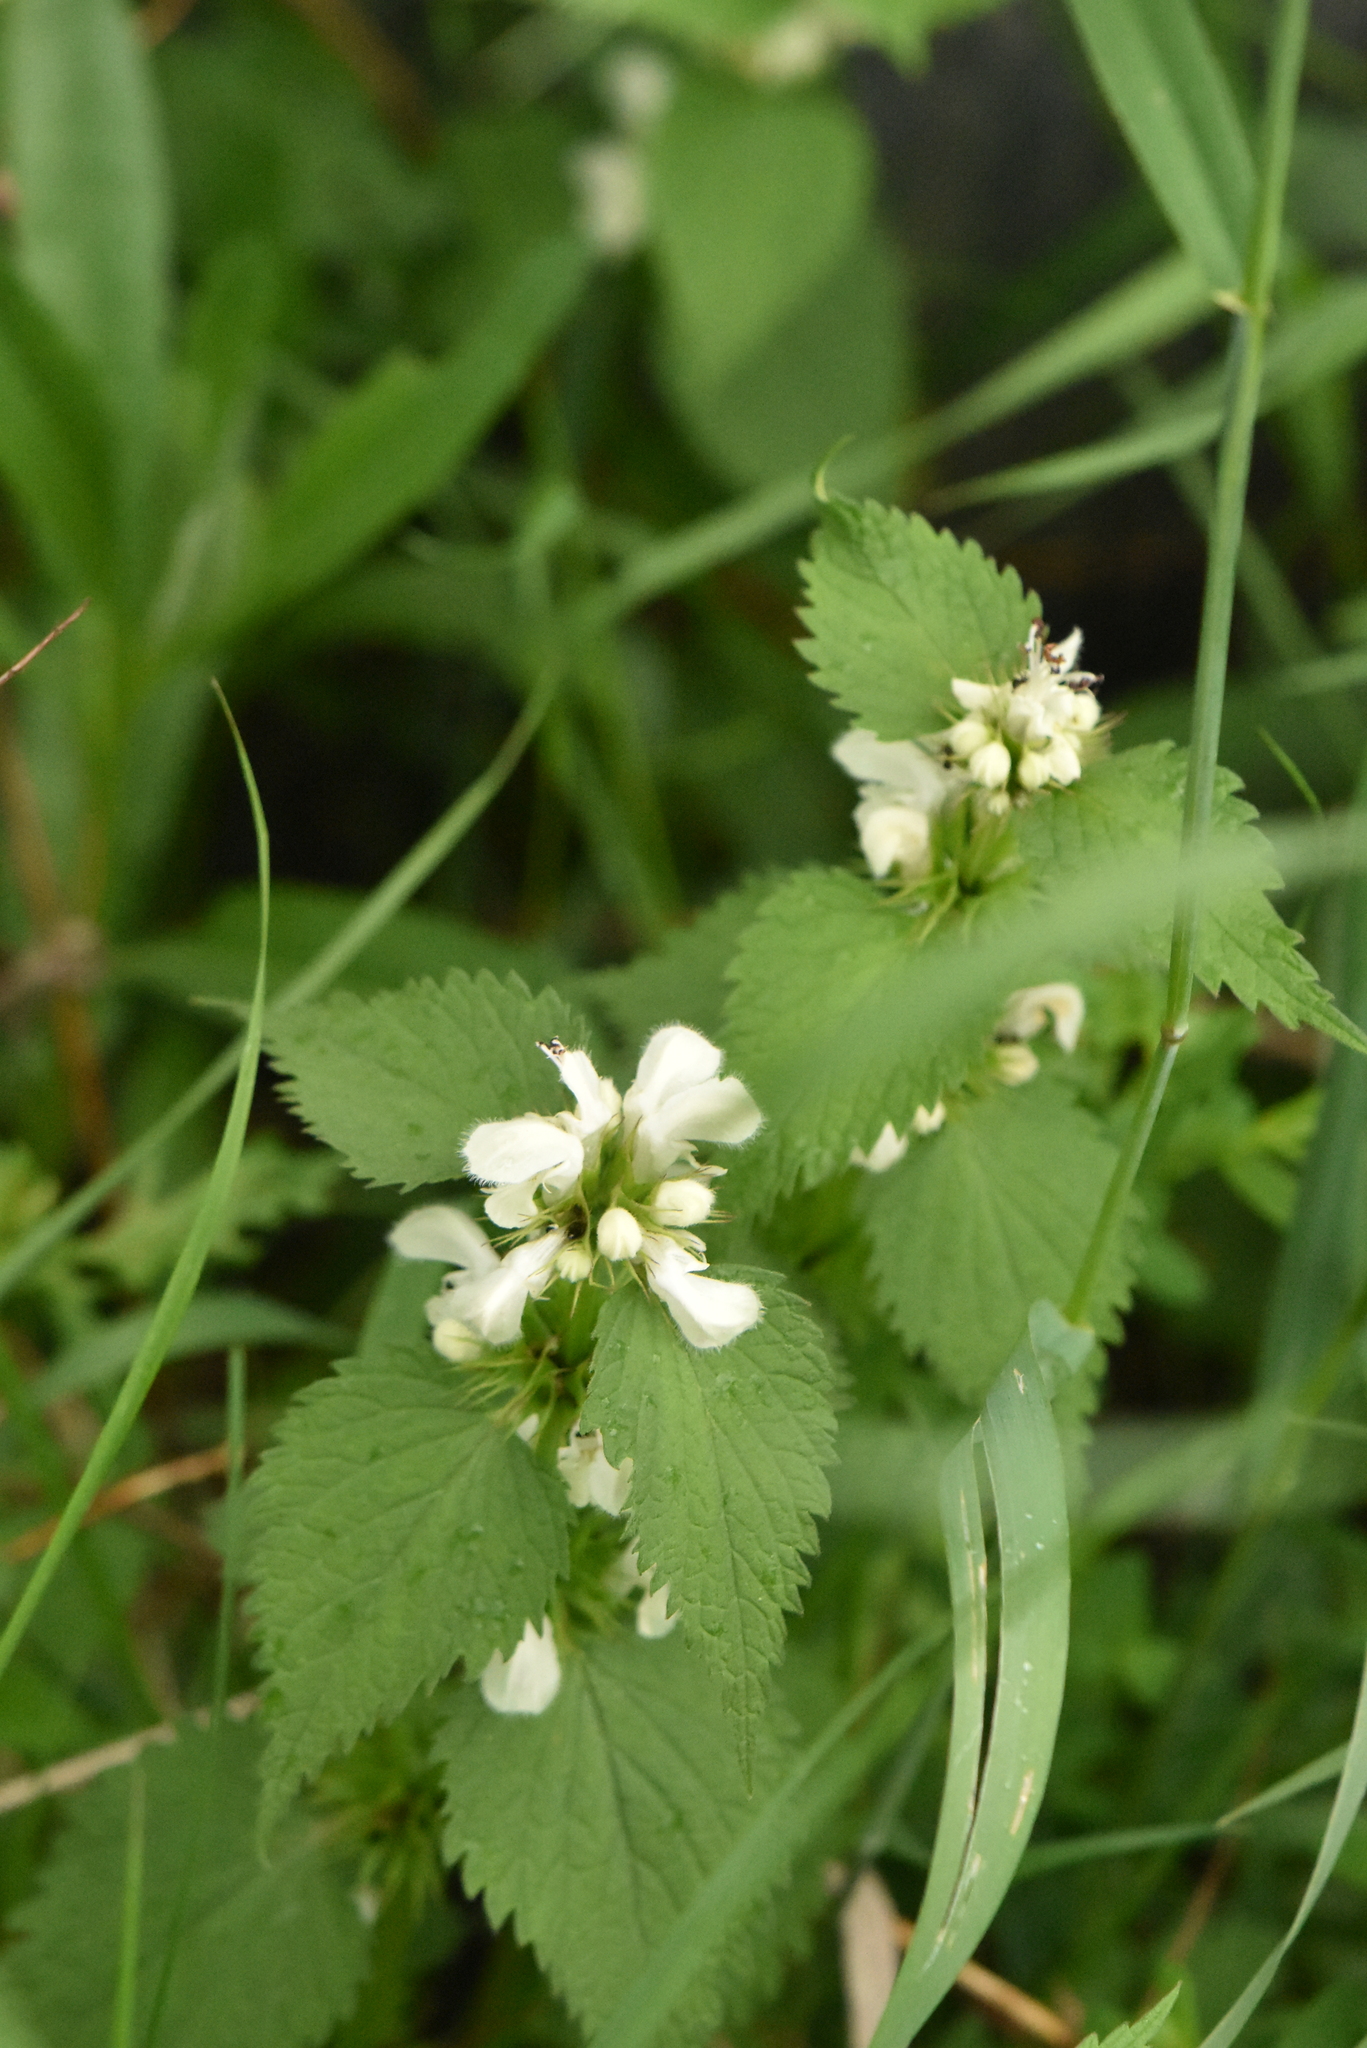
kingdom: Plantae
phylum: Tracheophyta
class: Magnoliopsida
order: Lamiales
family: Lamiaceae
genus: Lamium
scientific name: Lamium album
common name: White dead-nettle
